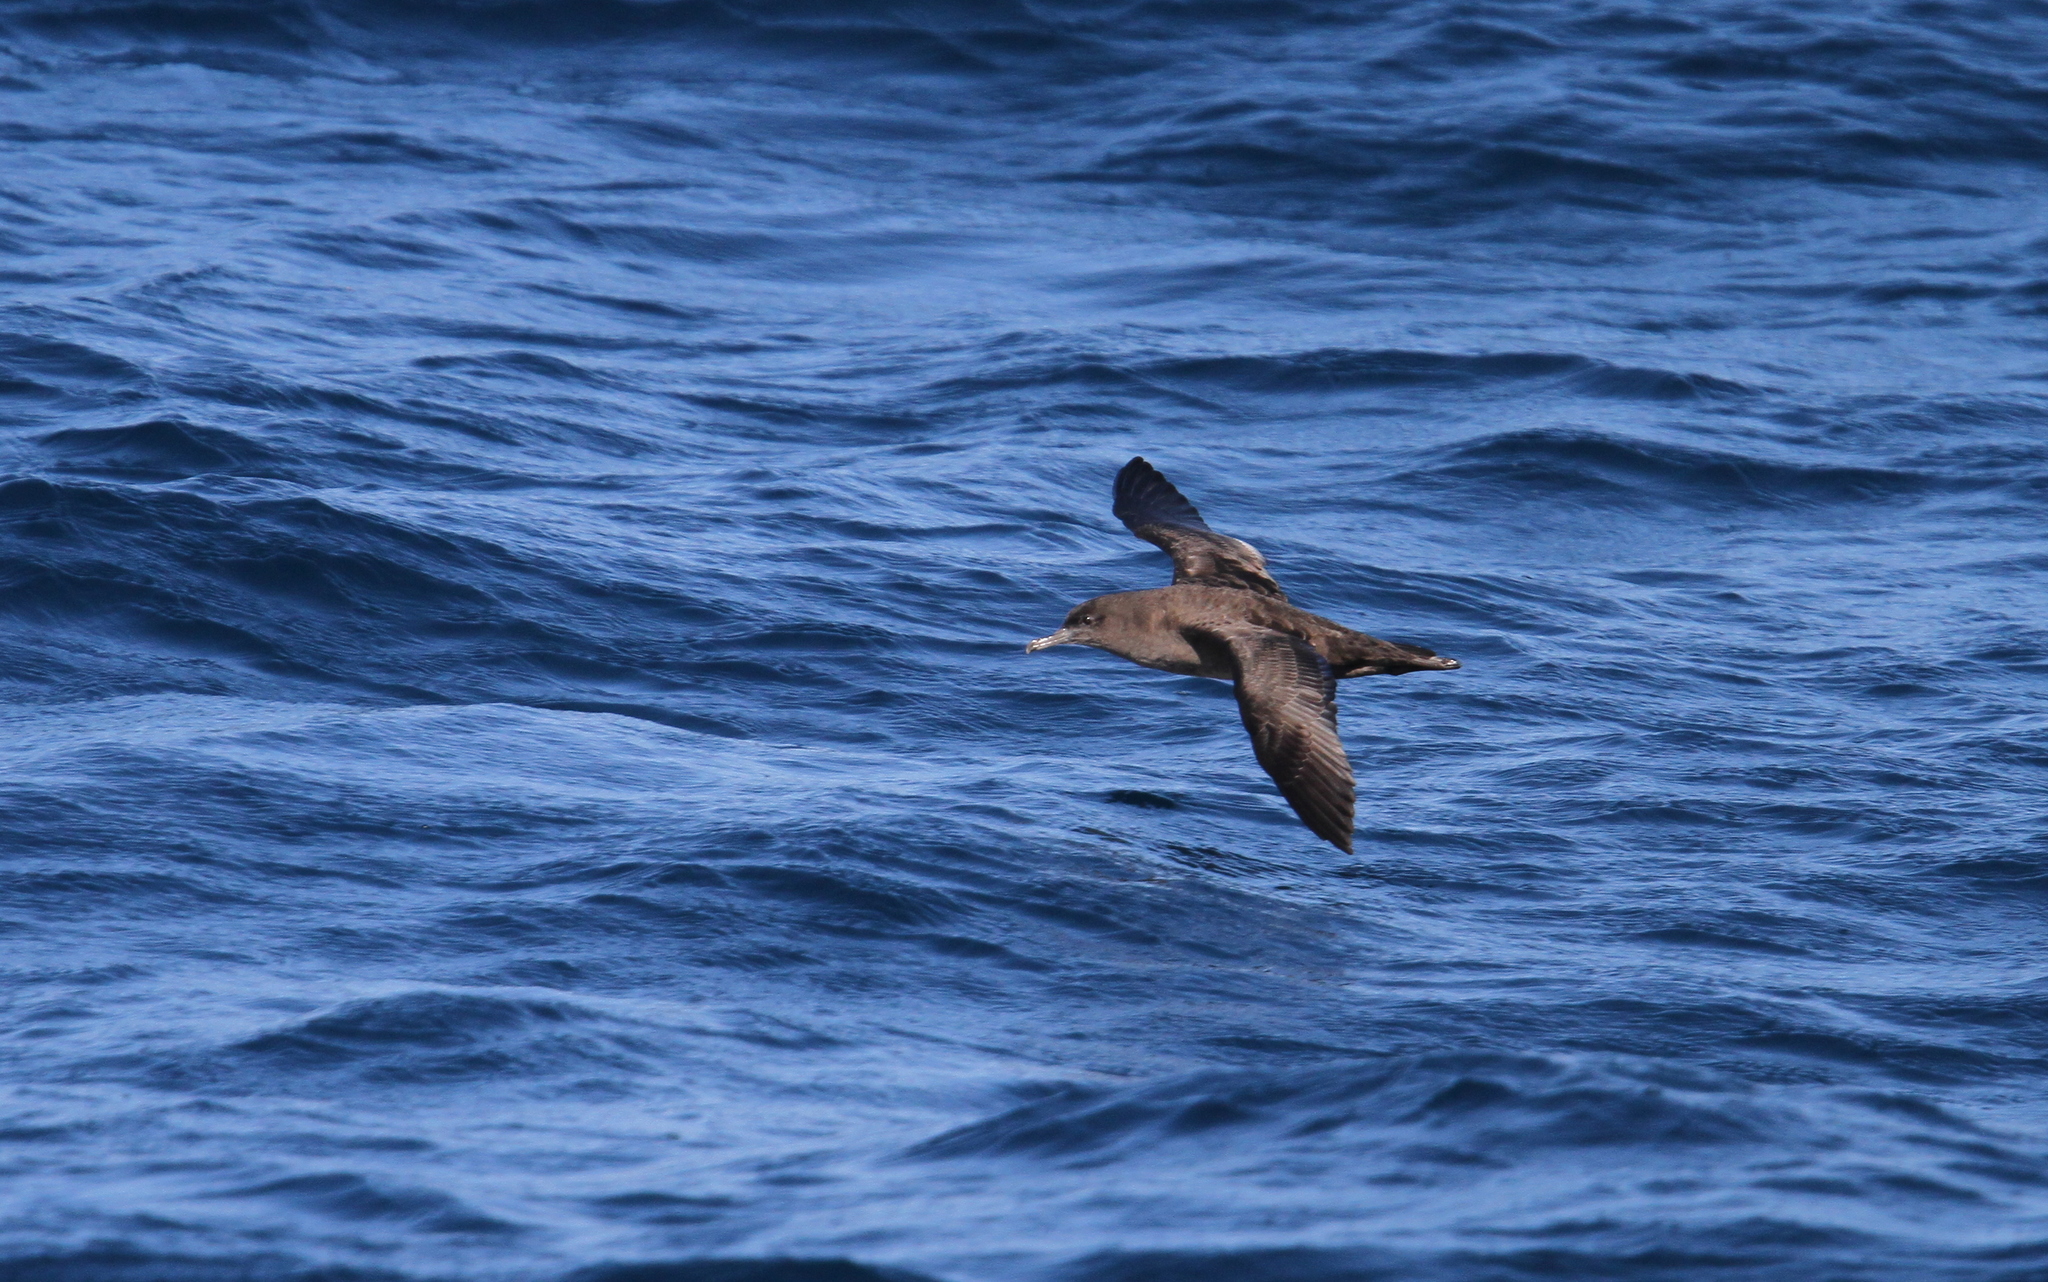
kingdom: Animalia
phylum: Chordata
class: Aves
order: Procellariiformes
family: Procellariidae
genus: Puffinus
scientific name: Puffinus griseus
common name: Sooty shearwater
